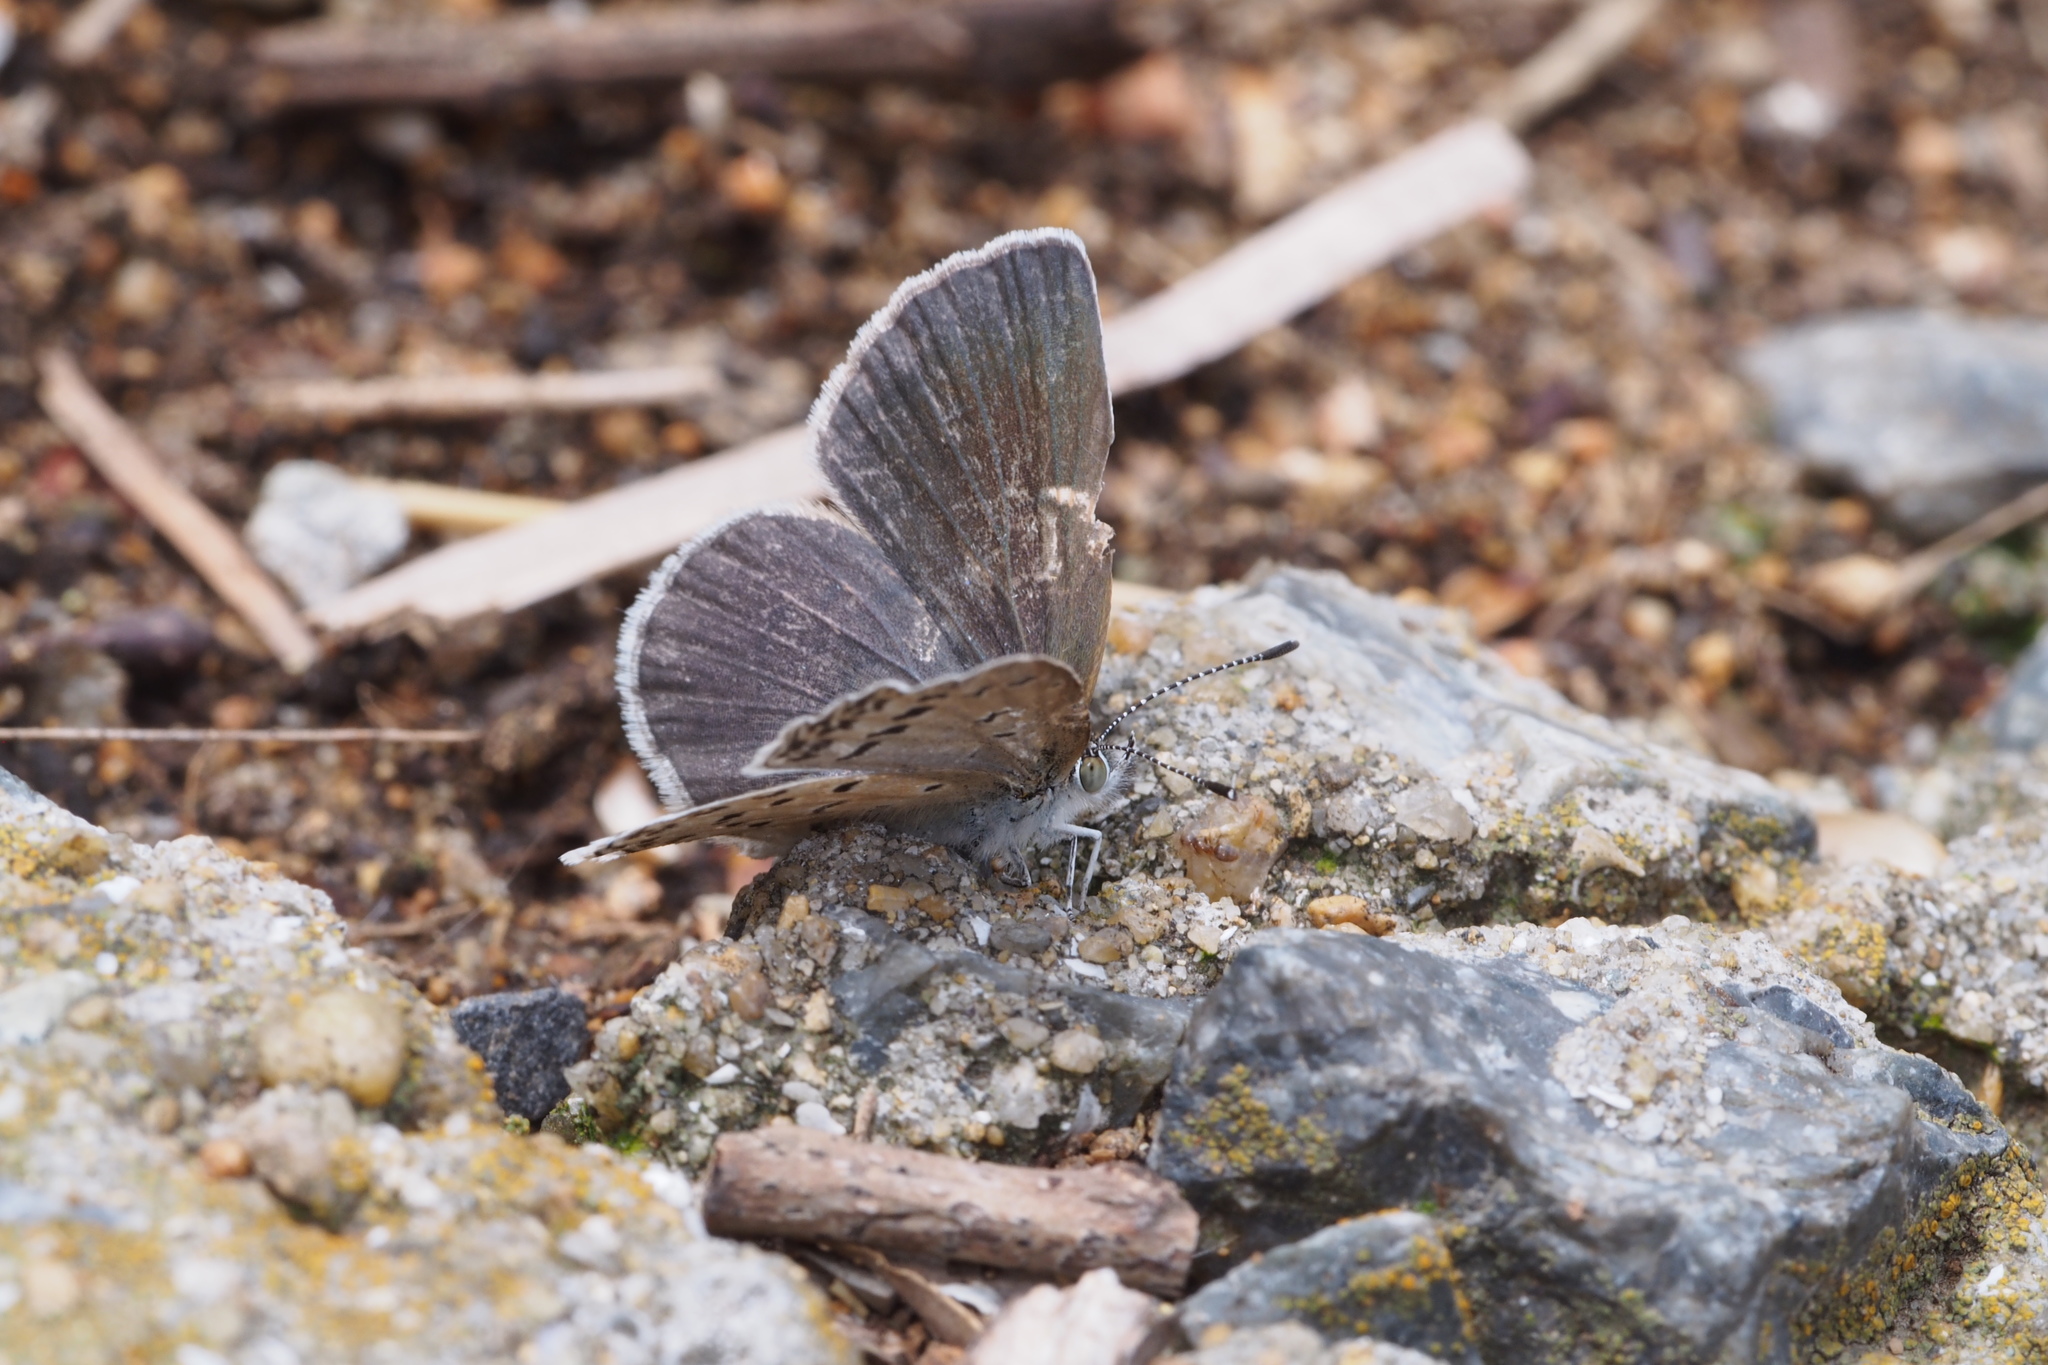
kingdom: Animalia
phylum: Arthropoda
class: Insecta
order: Lepidoptera
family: Lycaenidae
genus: Pseudozizeeria
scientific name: Pseudozizeeria maha
